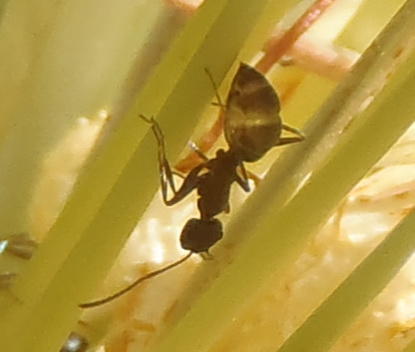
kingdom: Animalia
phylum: Arthropoda
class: Insecta
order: Hymenoptera
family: Formicidae
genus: Anoplolepis
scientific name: Anoplolepis custodiens
